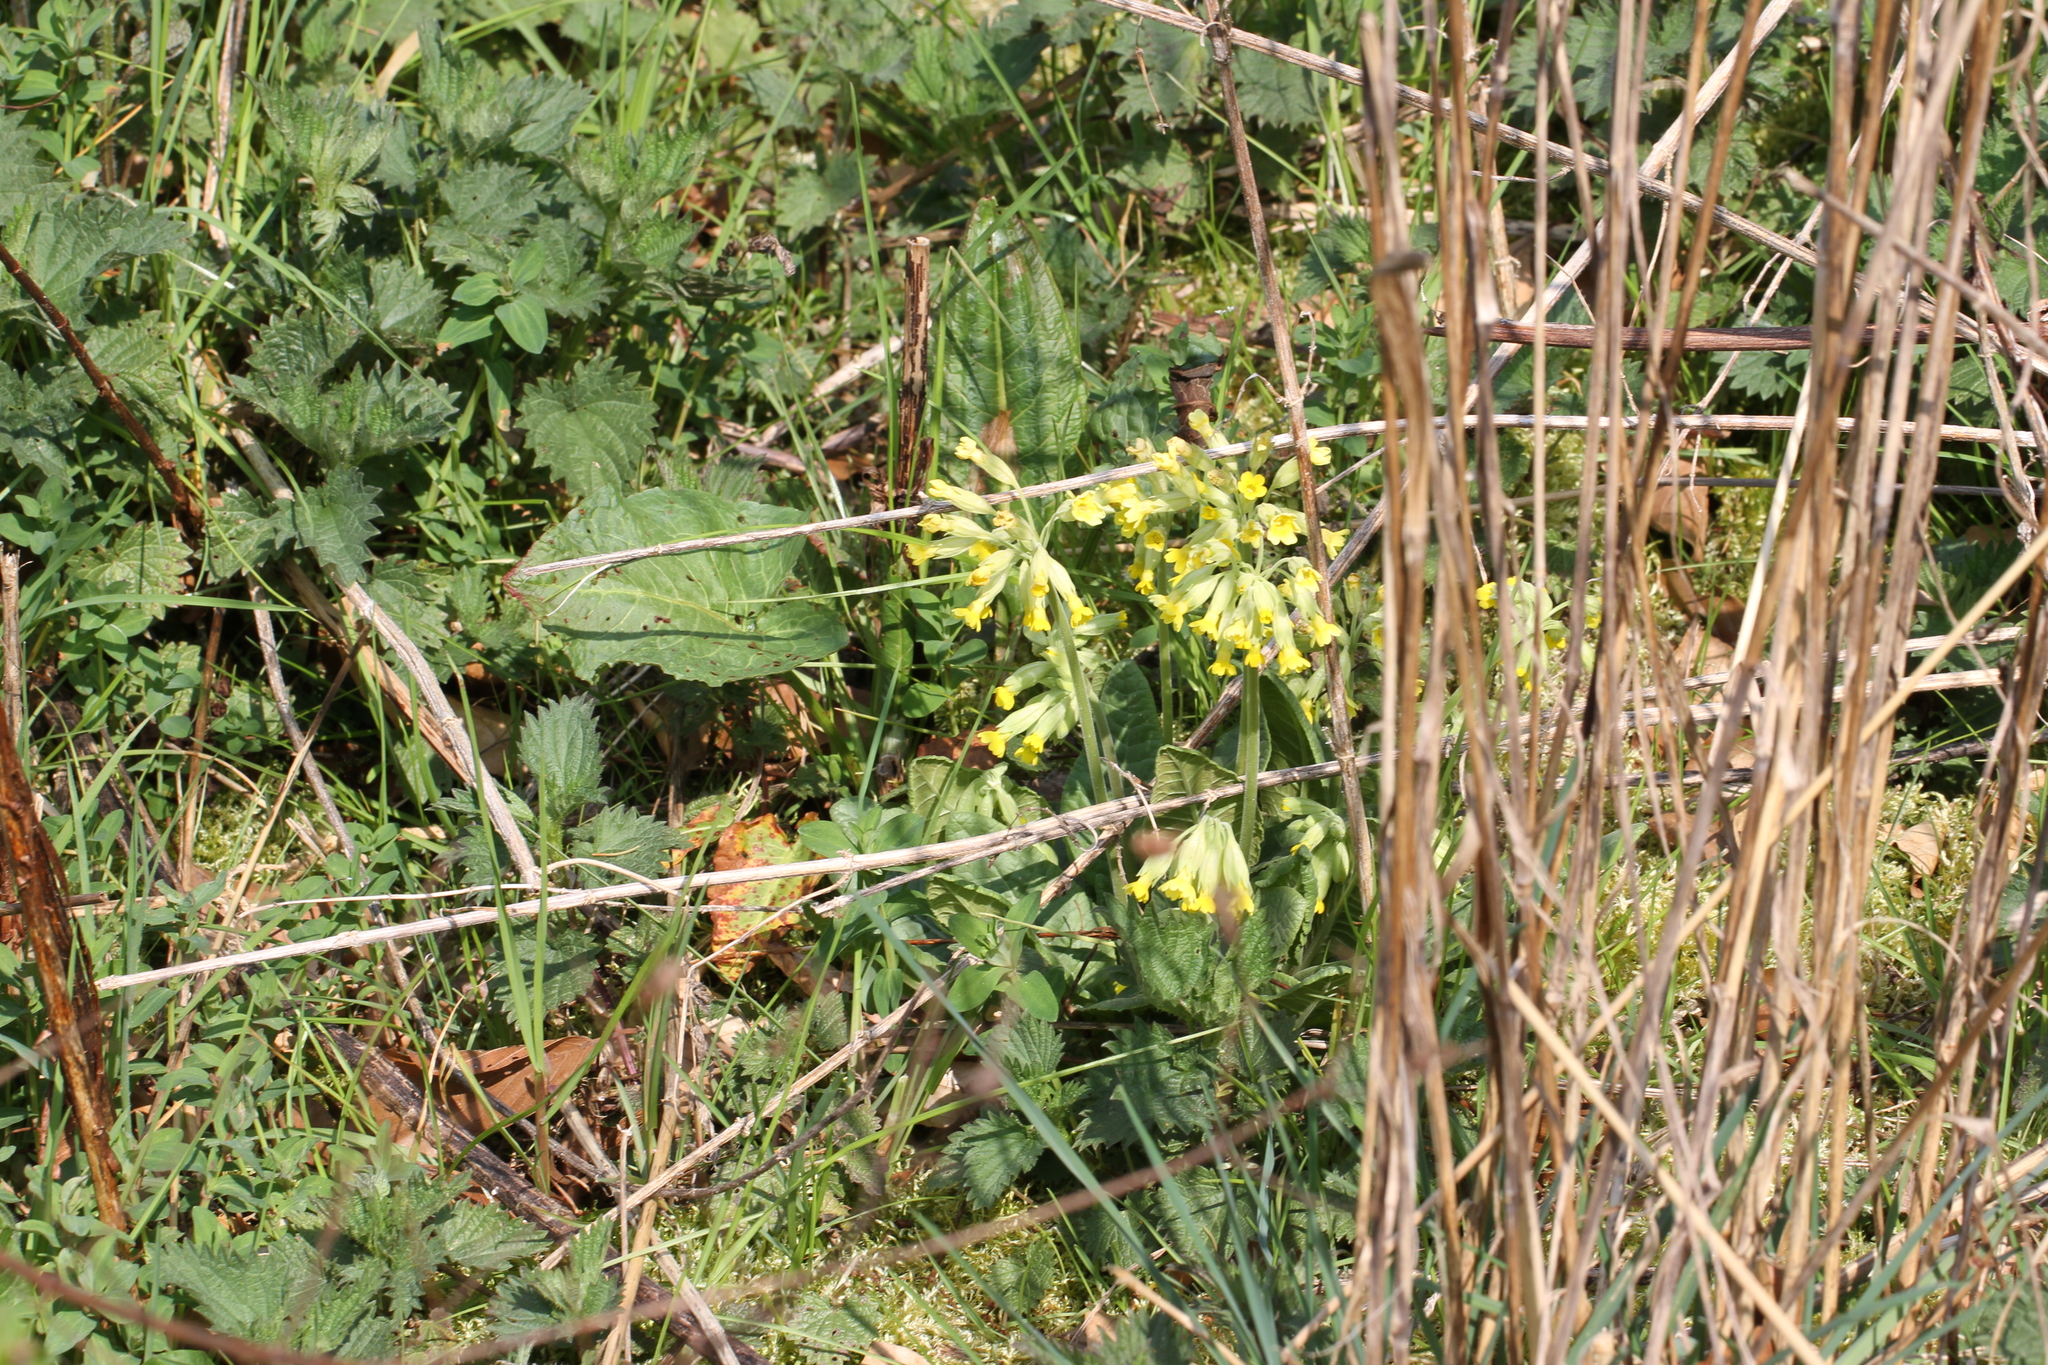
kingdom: Plantae
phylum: Tracheophyta
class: Magnoliopsida
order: Ericales
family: Primulaceae
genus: Primula
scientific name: Primula veris
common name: Cowslip
